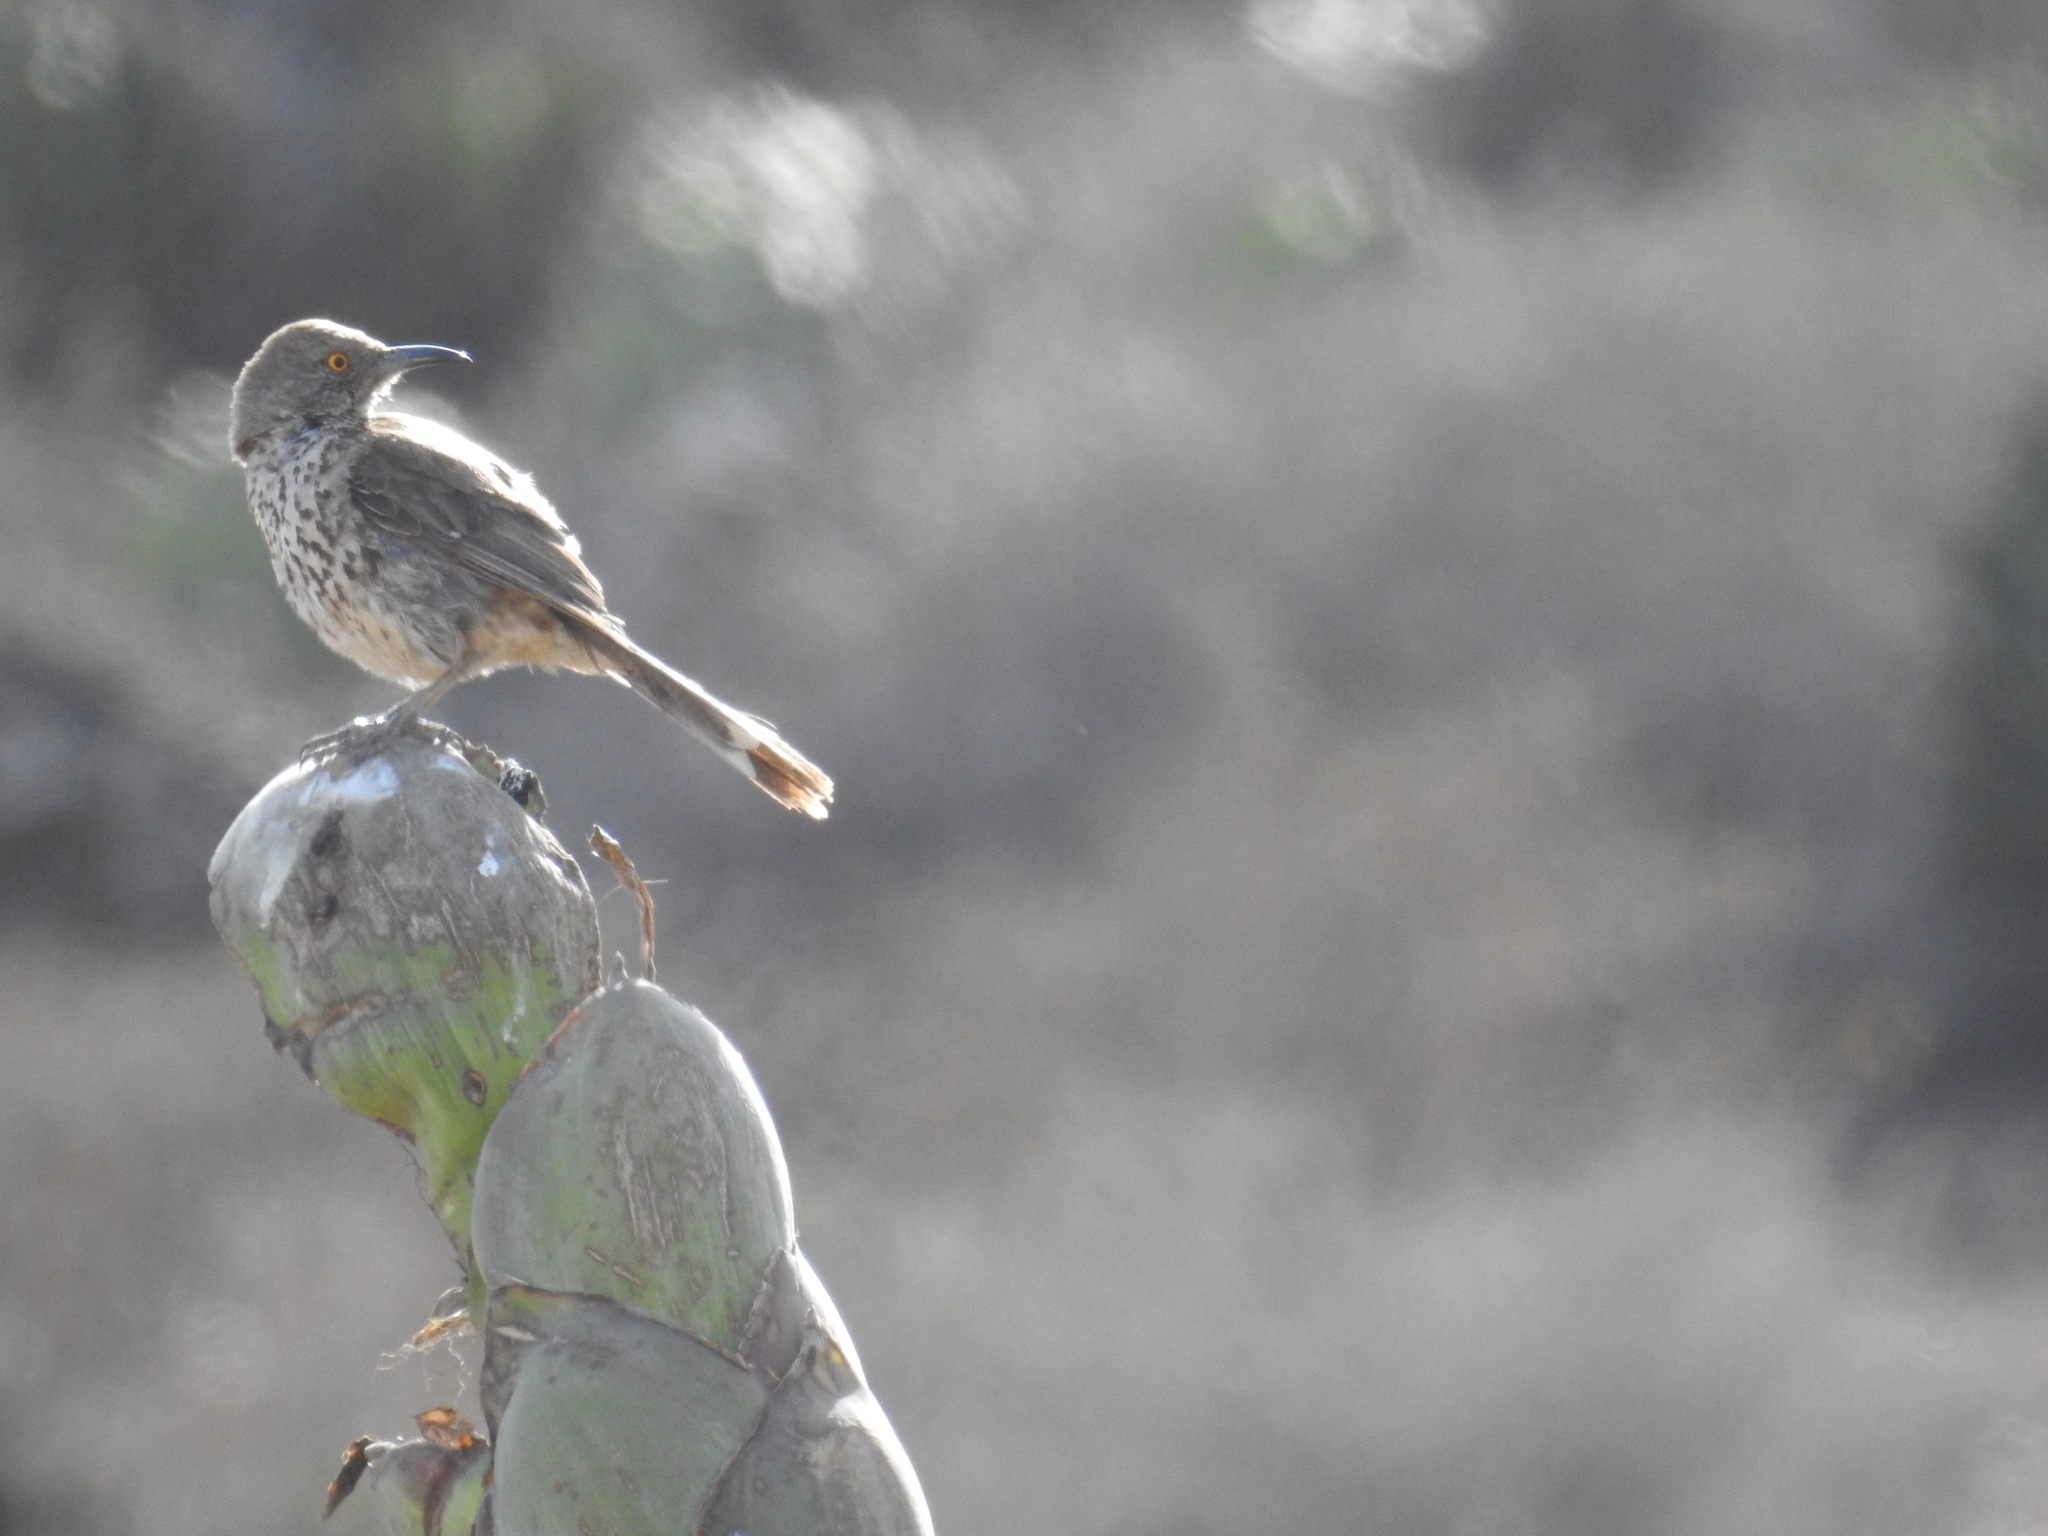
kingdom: Animalia
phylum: Chordata
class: Aves
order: Passeriformes
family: Mimidae
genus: Toxostoma
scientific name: Toxostoma cinereum
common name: Gray thrasher
